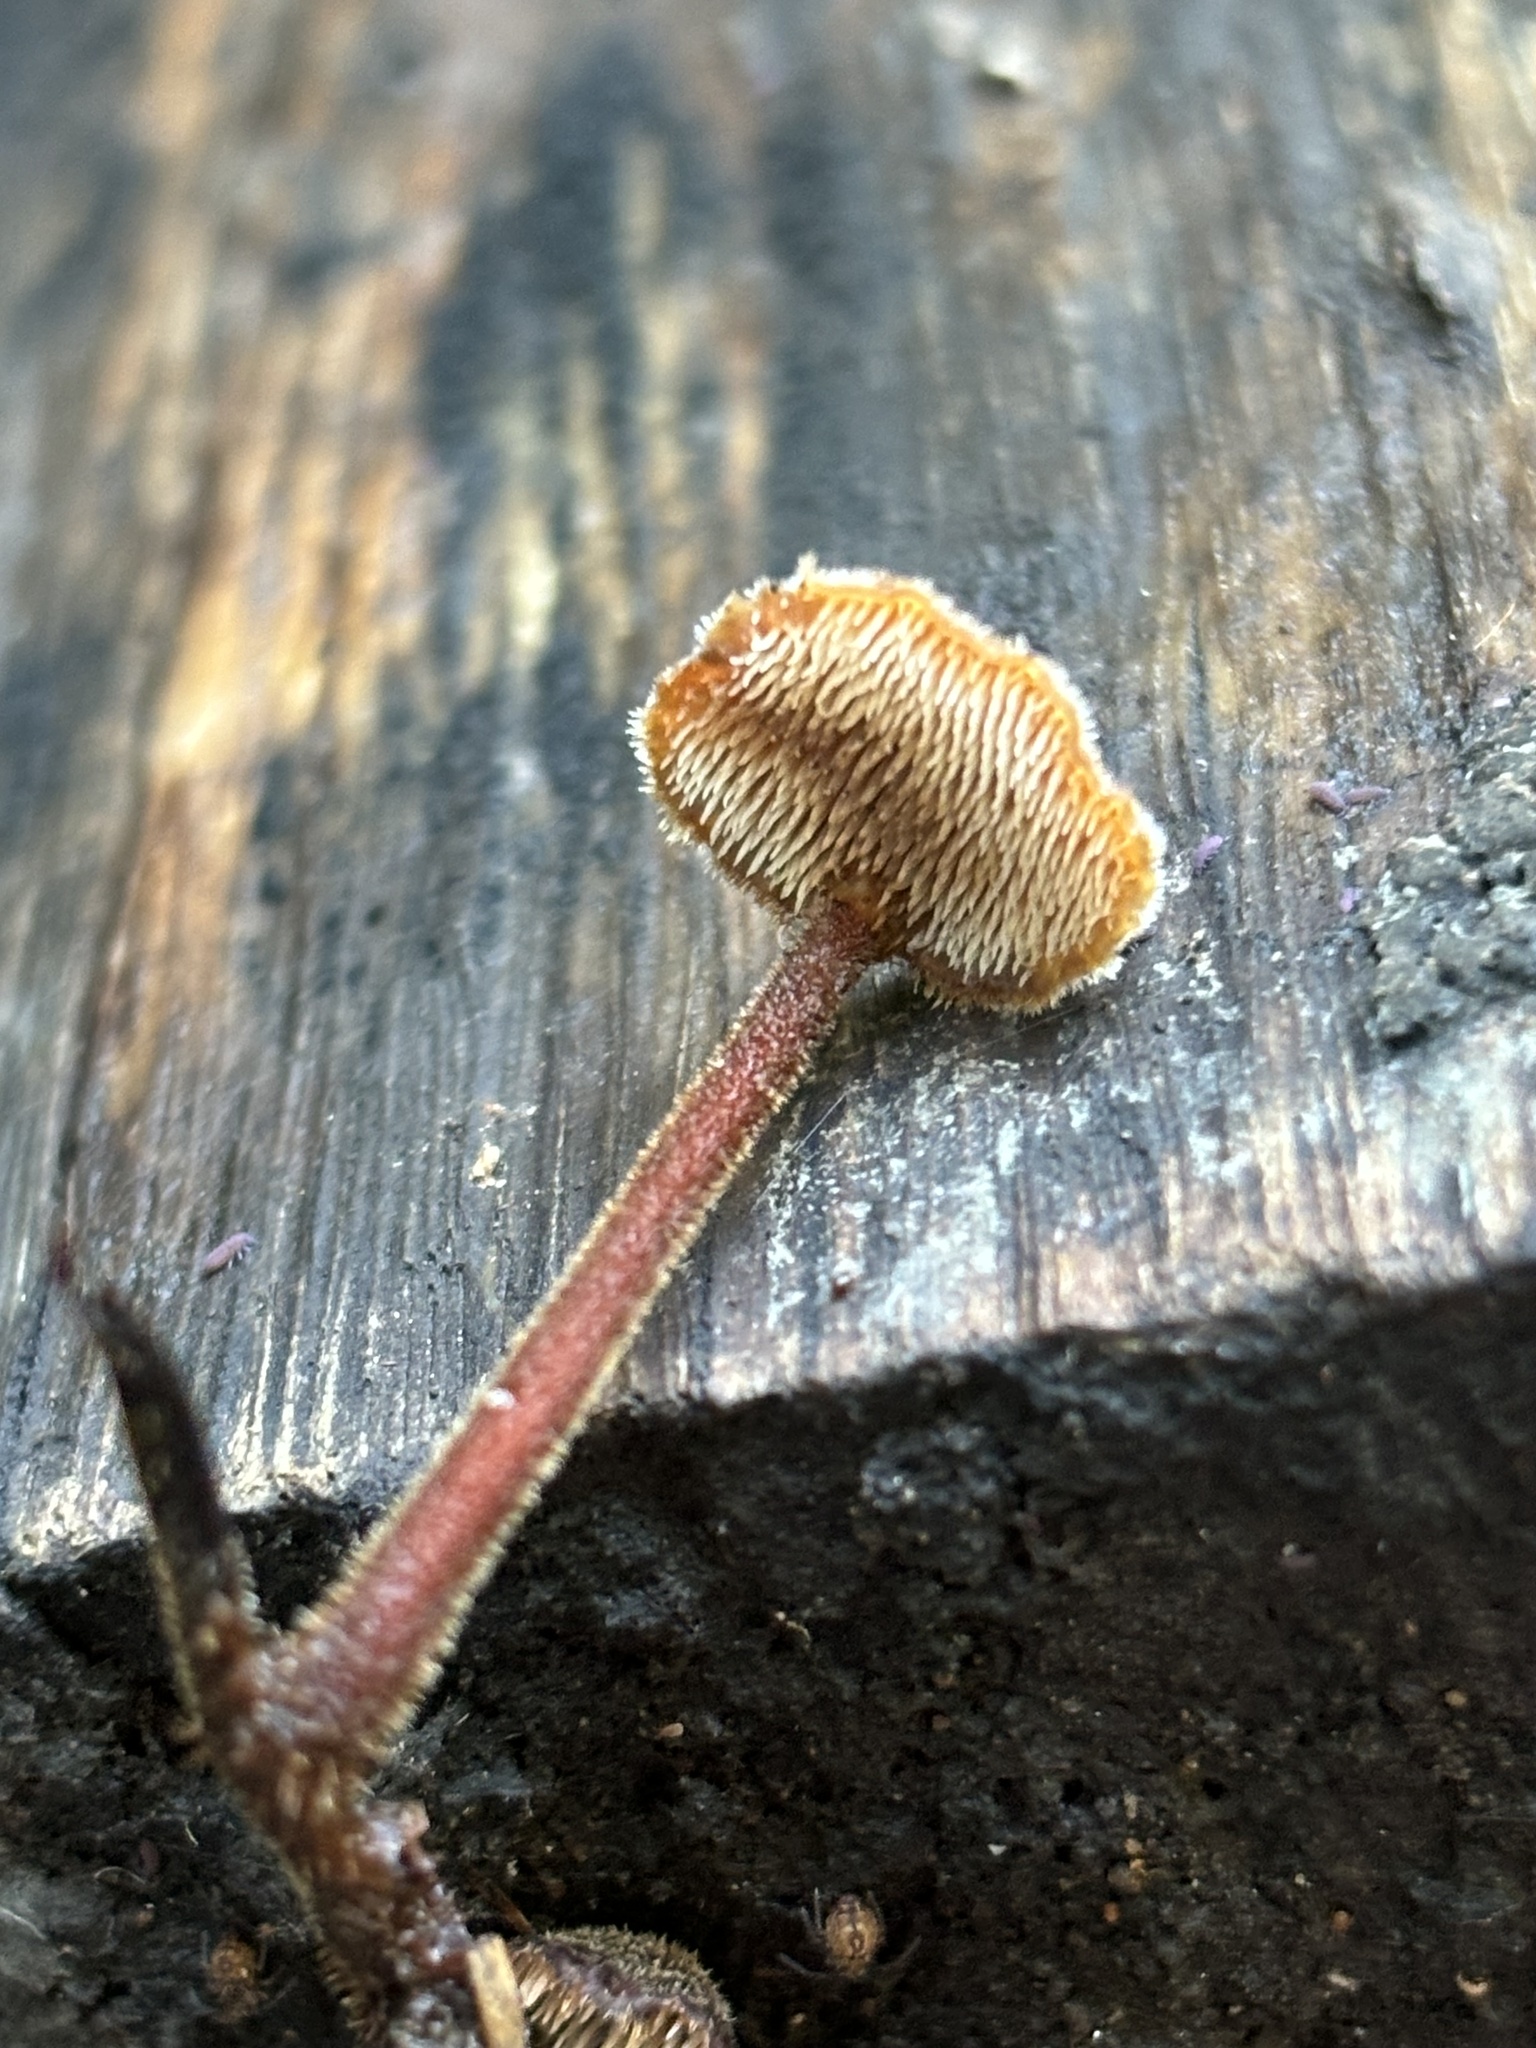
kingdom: Fungi
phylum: Basidiomycota
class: Agaricomycetes
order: Russulales
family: Auriscalpiaceae
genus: Auriscalpium
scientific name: Auriscalpium vulgare
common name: Earpick fungus
